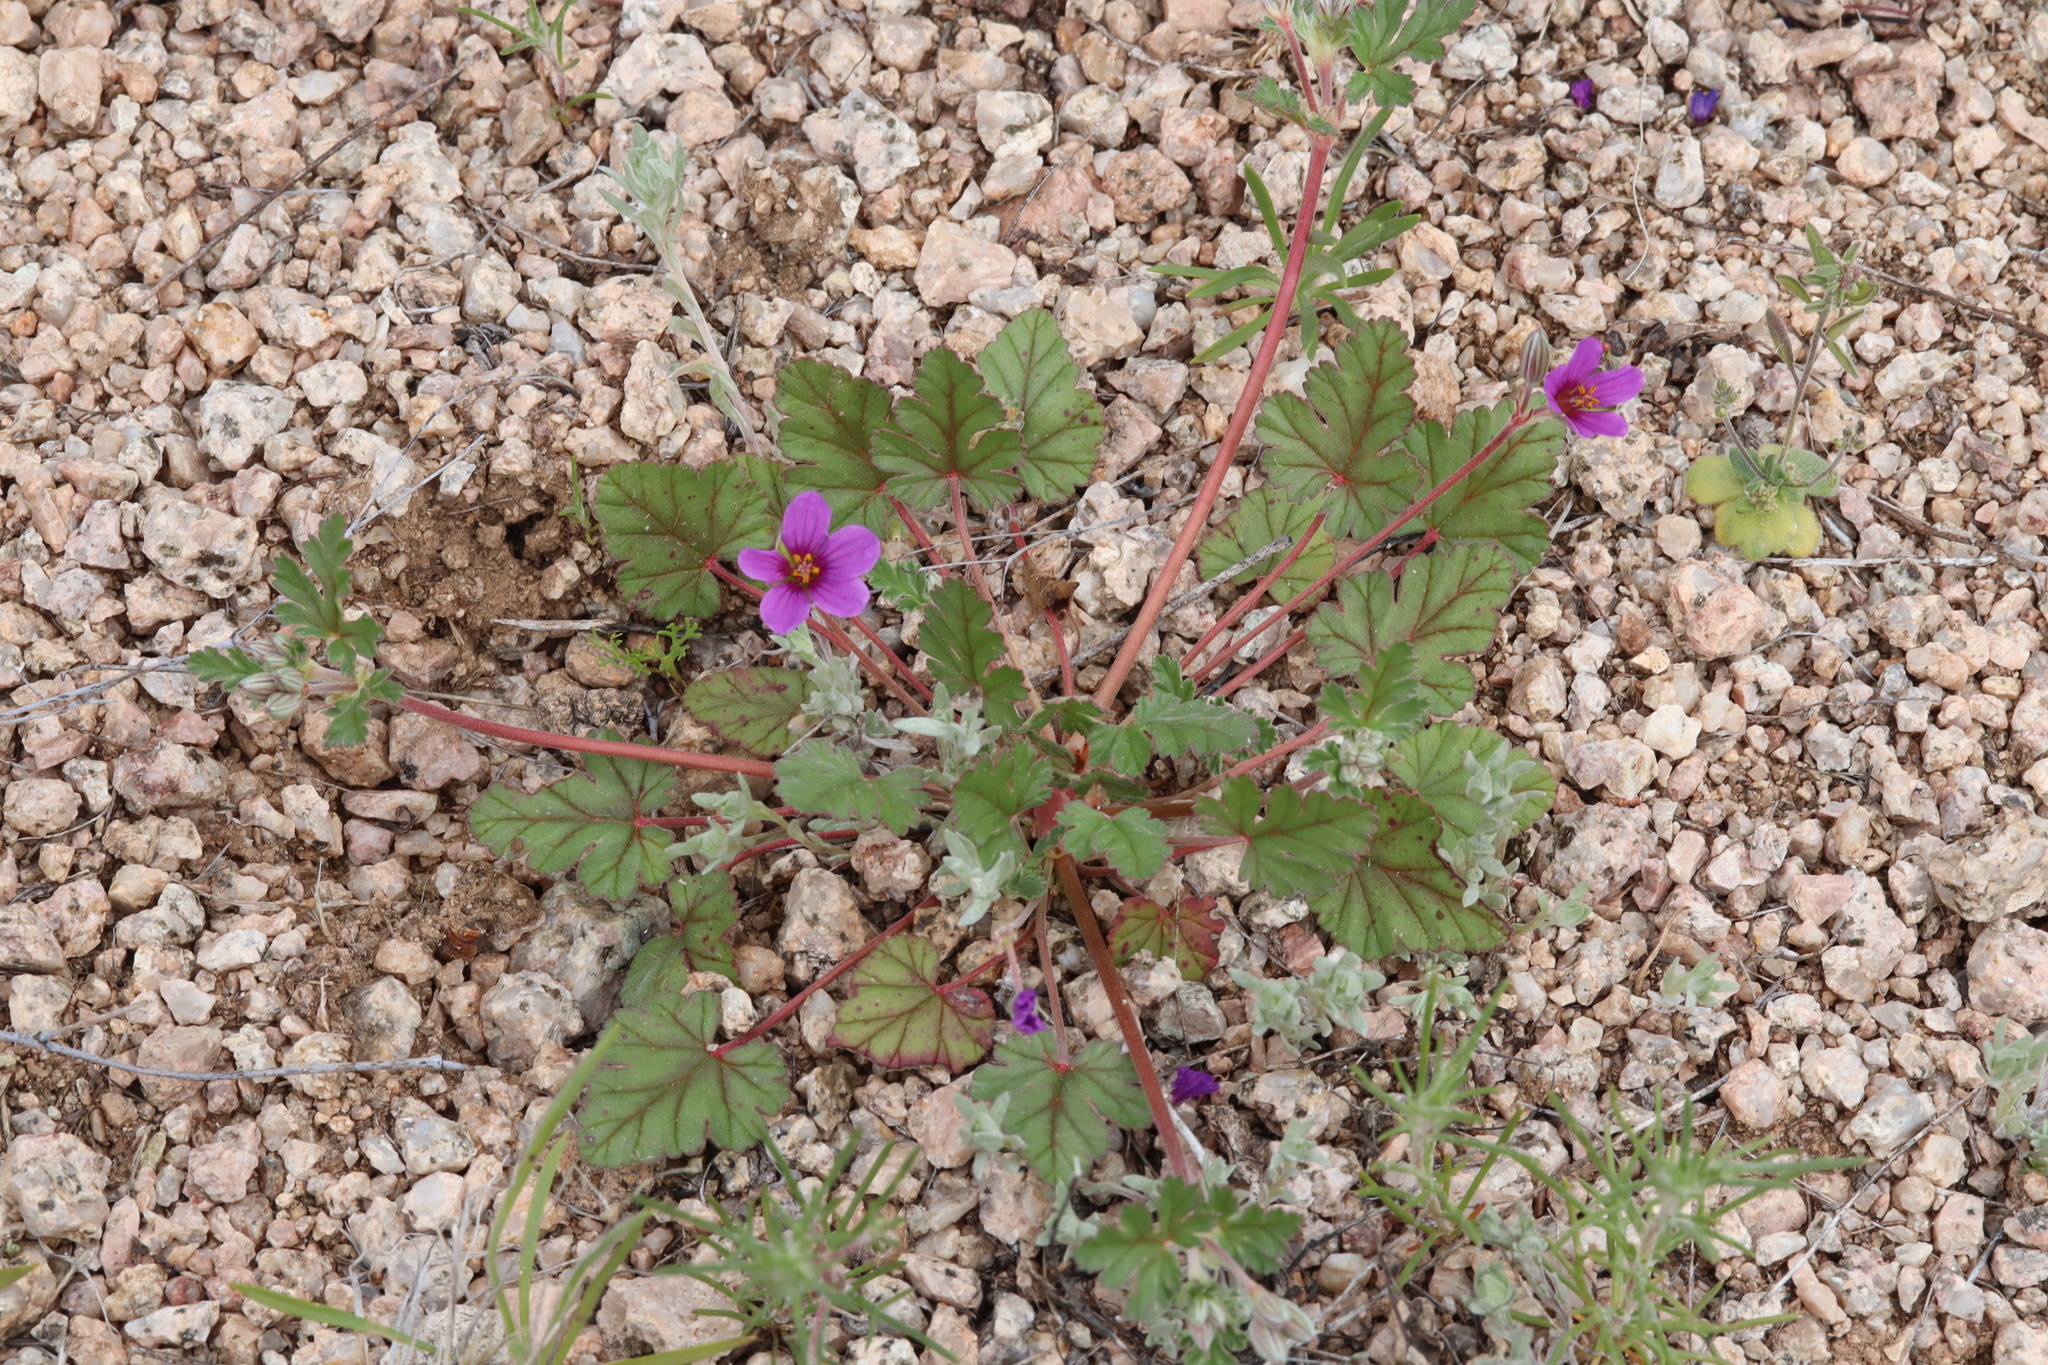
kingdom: Plantae
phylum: Tracheophyta
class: Magnoliopsida
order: Geraniales
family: Geraniaceae
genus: Erodium
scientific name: Erodium texanum
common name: Texas stork's-bill
